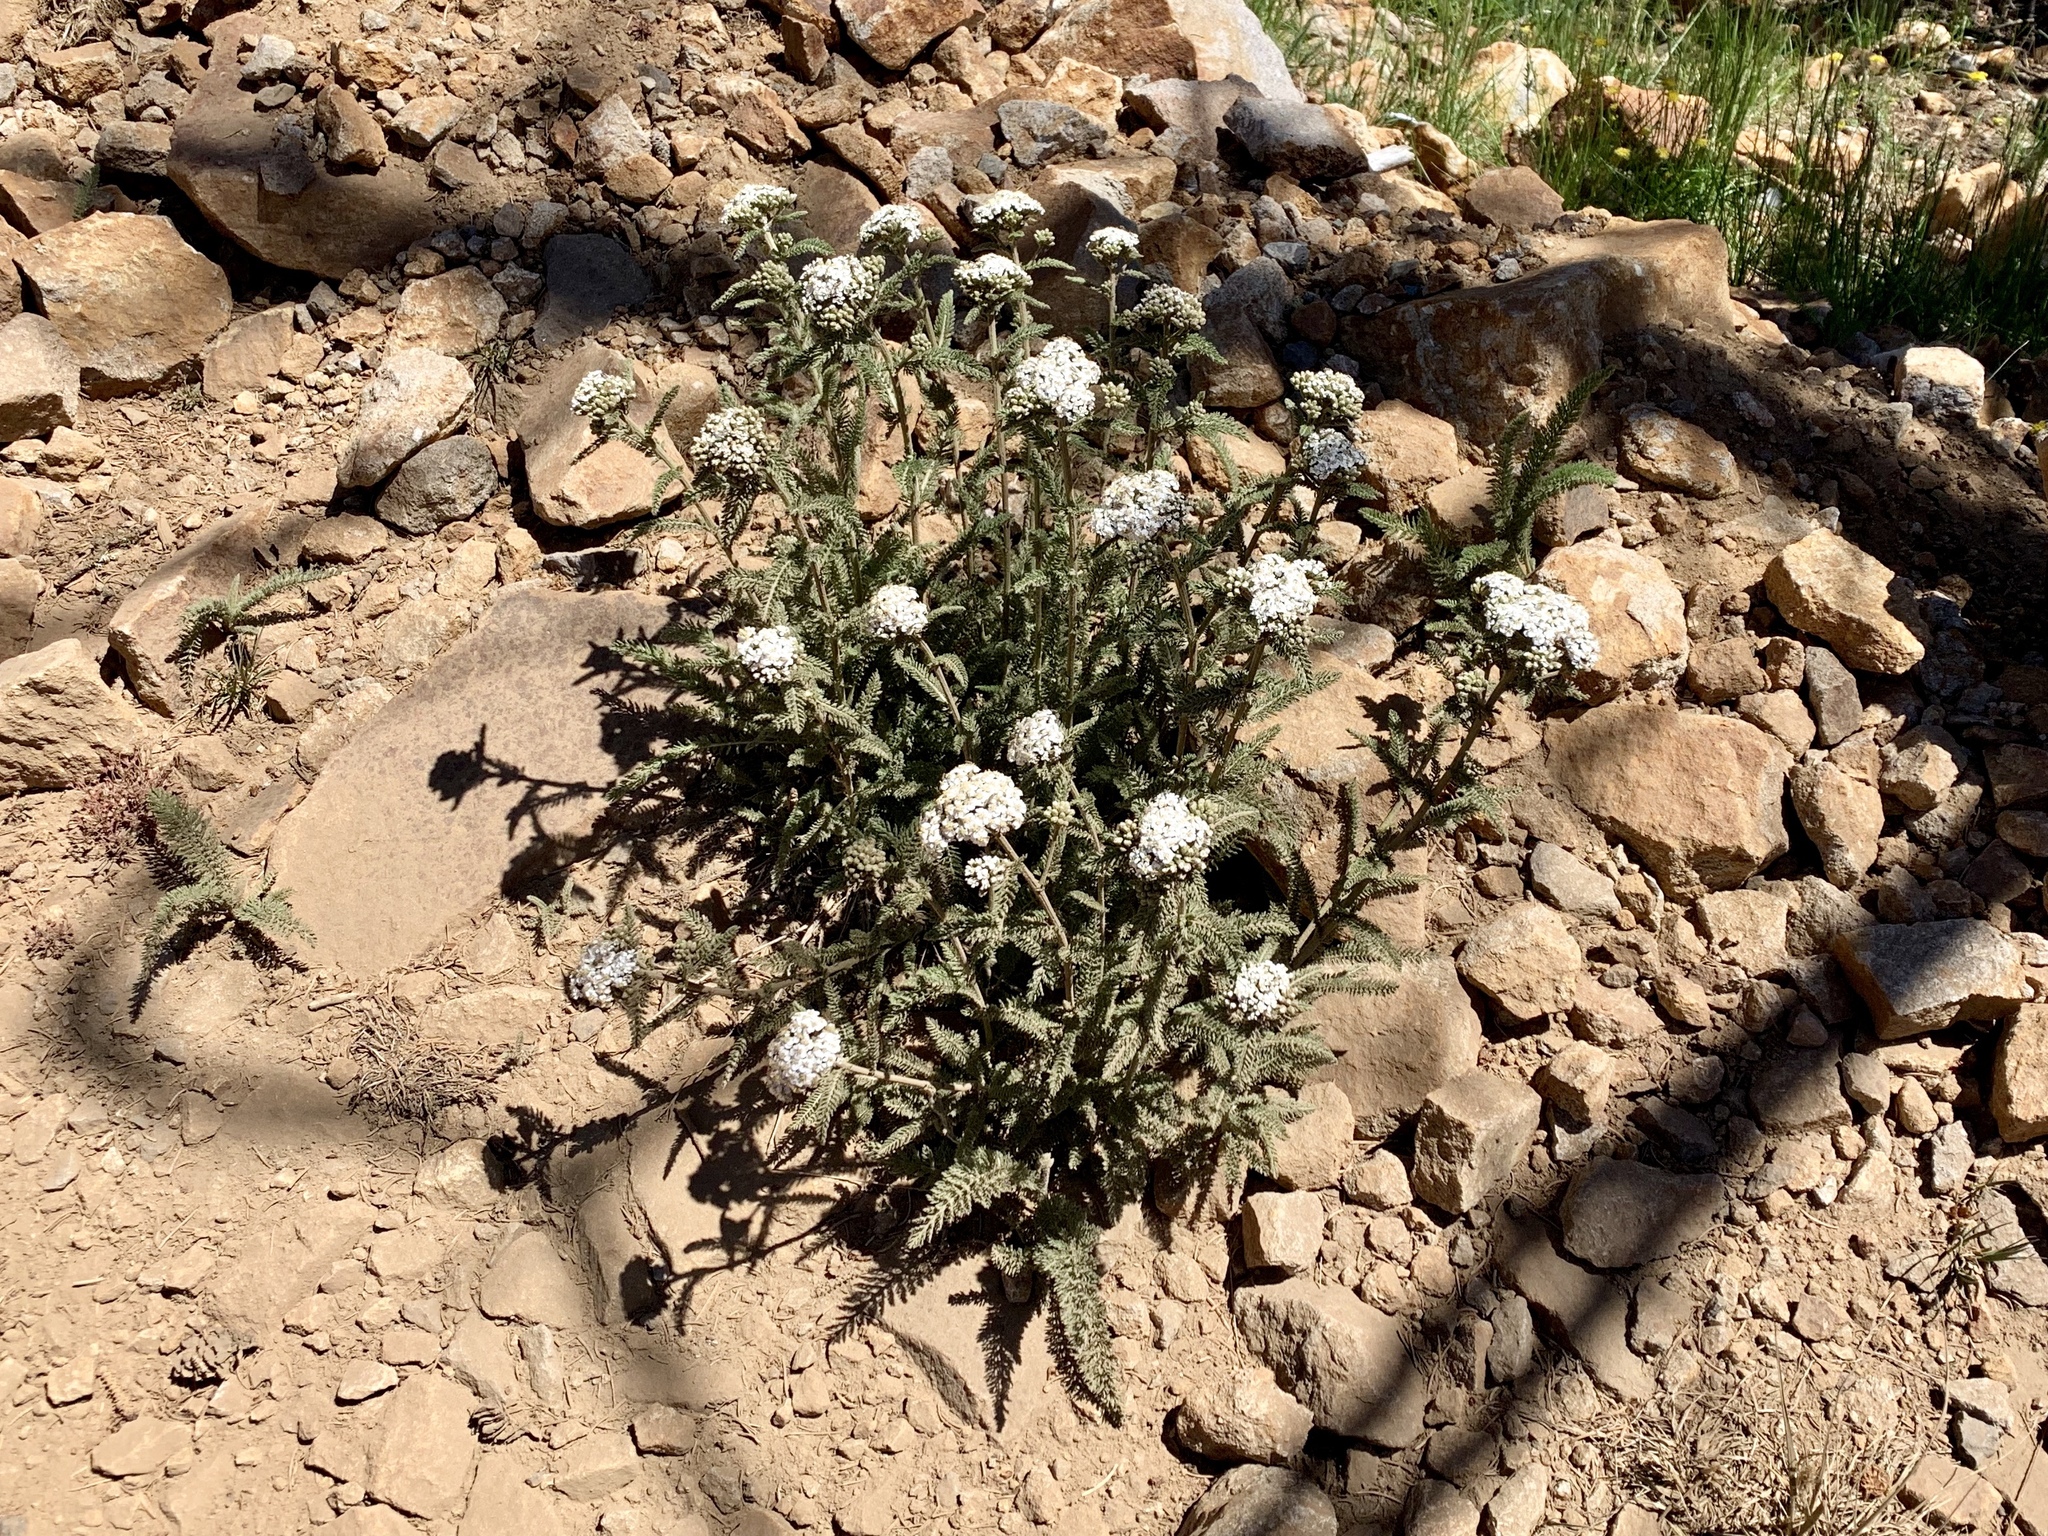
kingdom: Plantae
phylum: Tracheophyta
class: Magnoliopsida
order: Asterales
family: Asteraceae
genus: Achillea
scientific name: Achillea millefolium
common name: Yarrow
